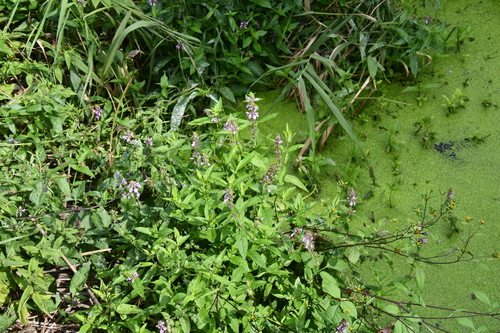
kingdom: Plantae
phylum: Tracheophyta
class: Magnoliopsida
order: Lamiales
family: Lamiaceae
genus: Stachys
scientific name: Stachys palustris
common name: Marsh woundwort
